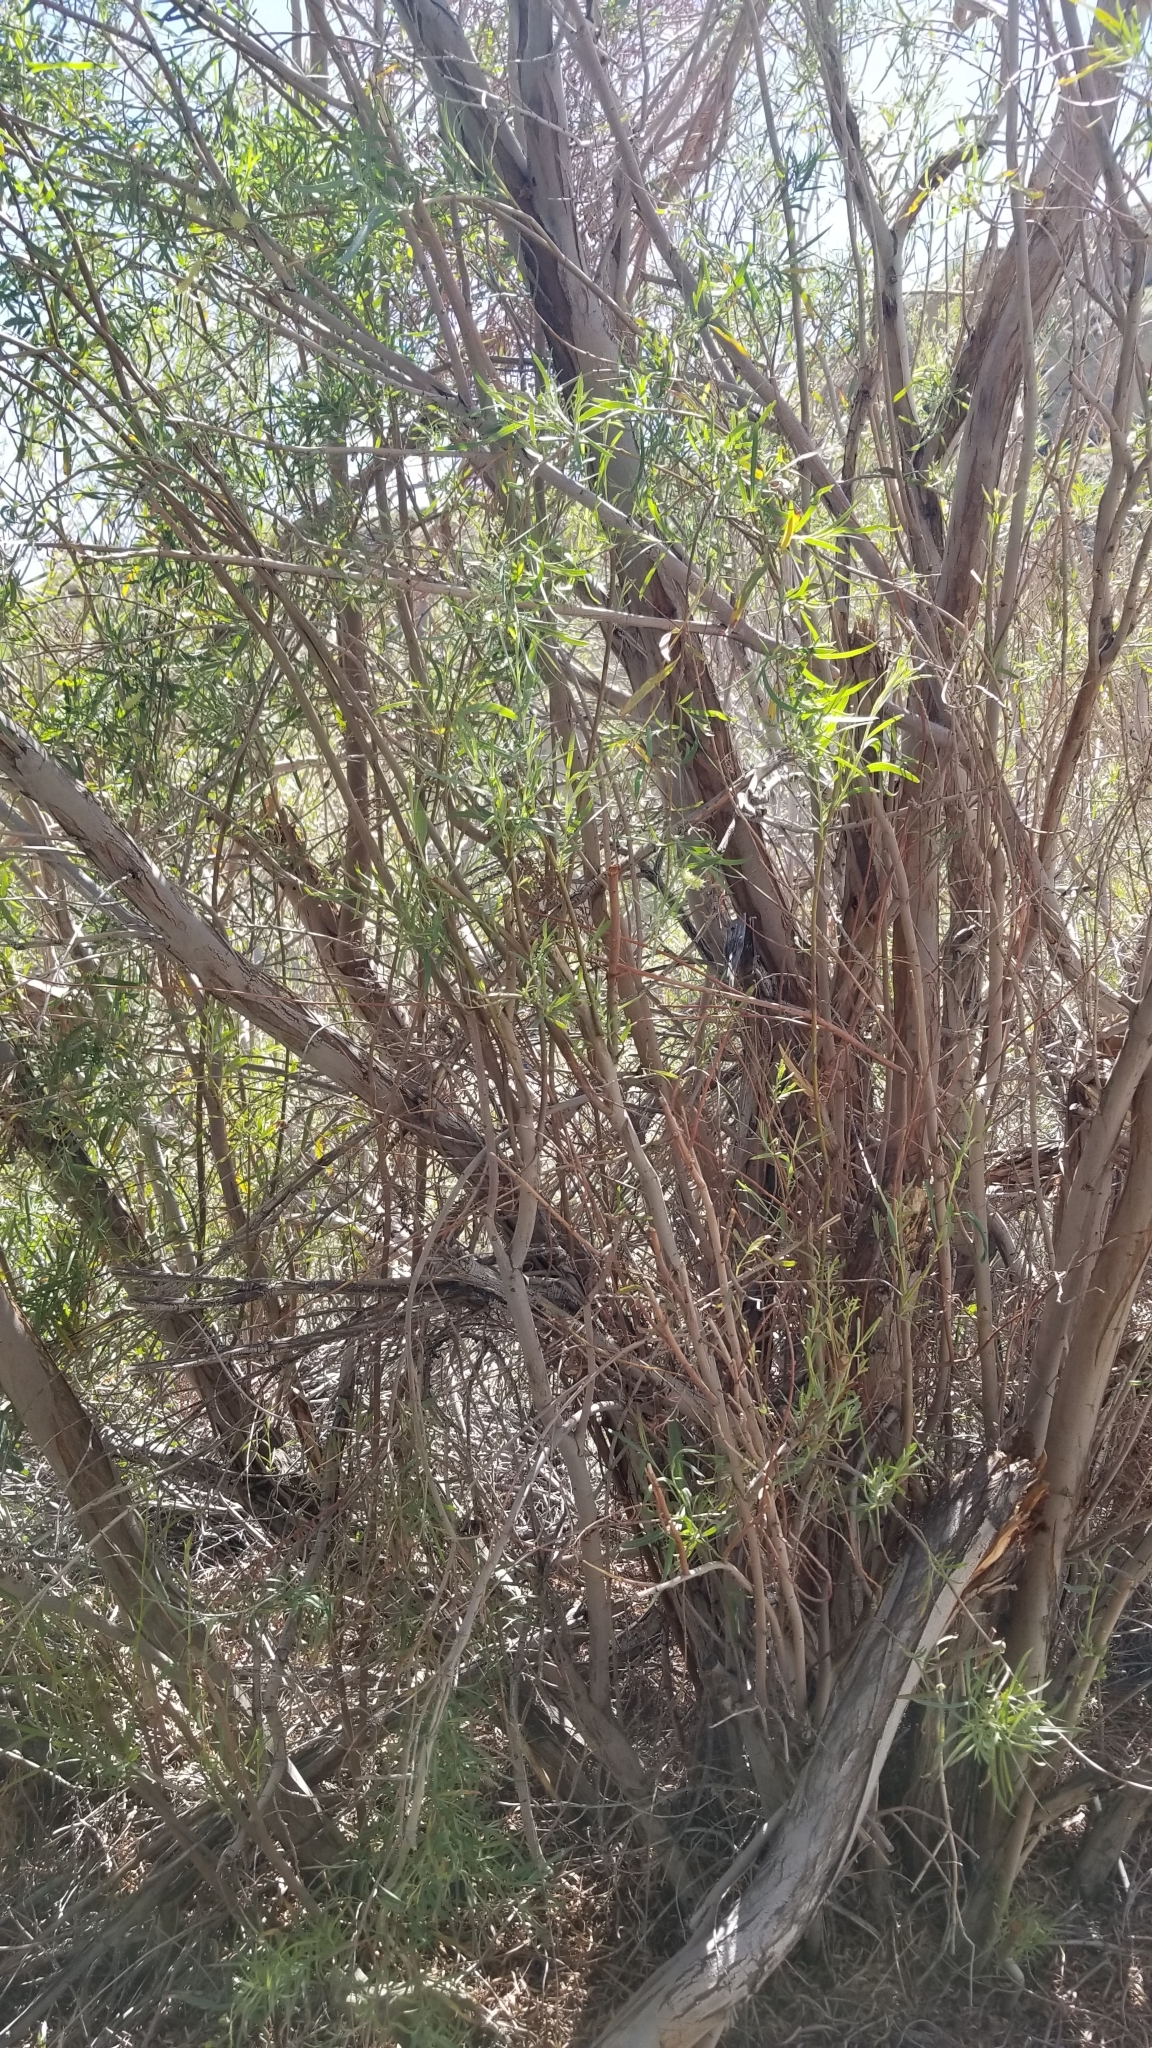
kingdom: Plantae
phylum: Tracheophyta
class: Magnoliopsida
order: Malpighiales
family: Salicaceae
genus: Salix
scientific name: Salix exigua
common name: Coyote willow
